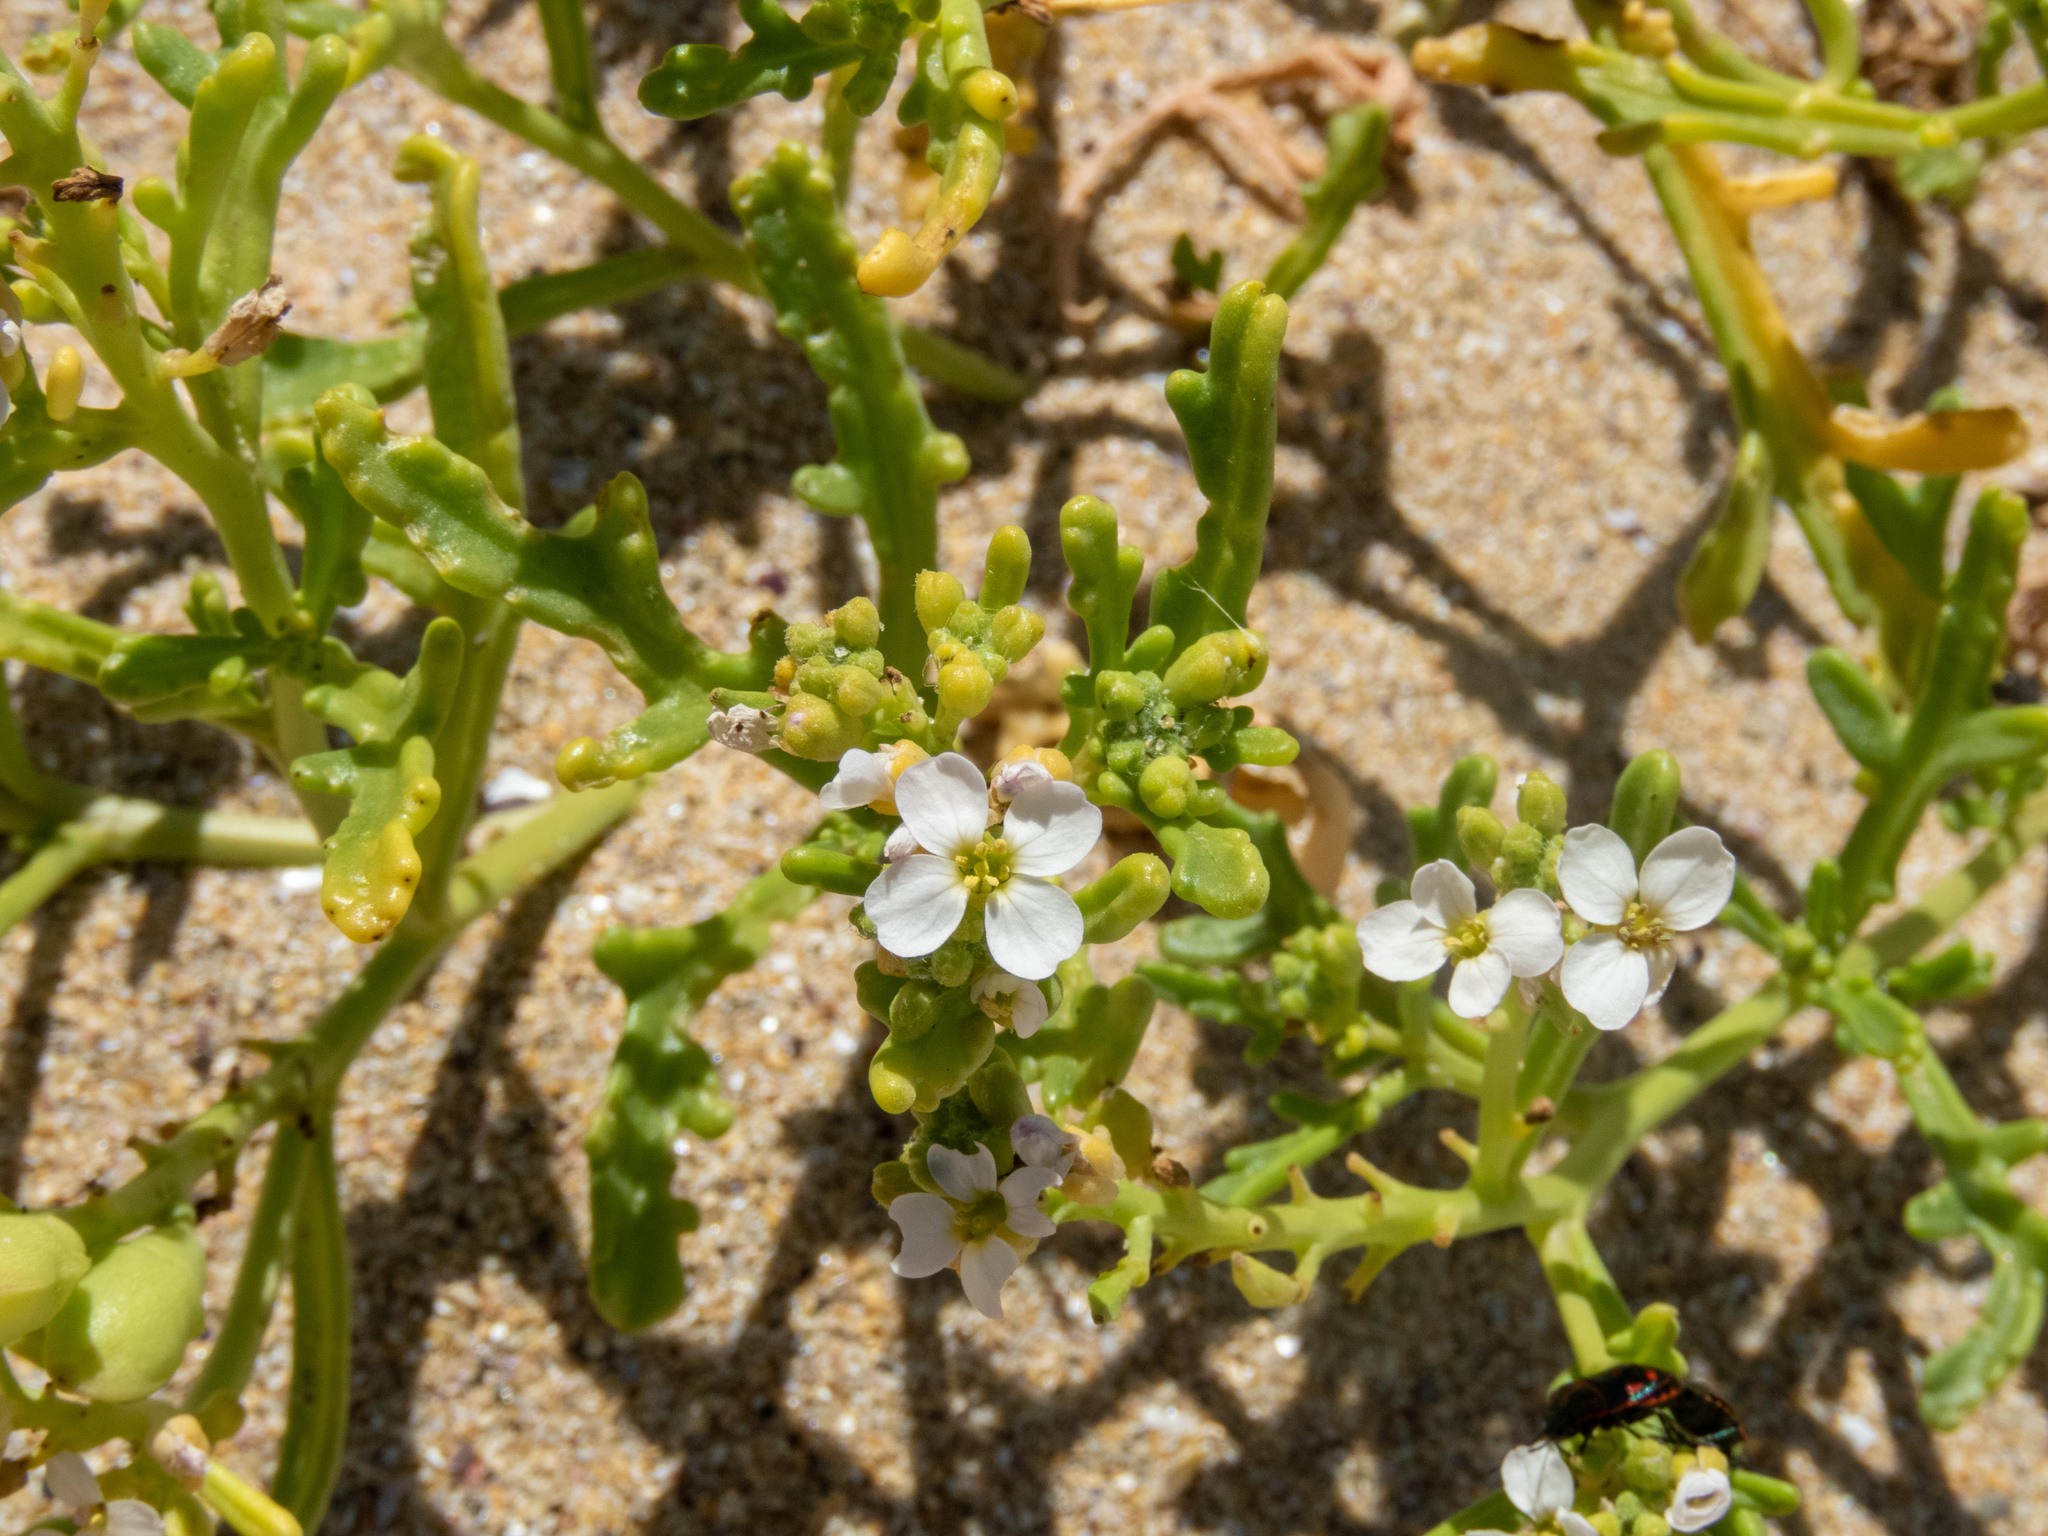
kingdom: Plantae
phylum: Tracheophyta
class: Magnoliopsida
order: Brassicales
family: Brassicaceae
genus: Cakile
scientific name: Cakile maritima
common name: Sea rocket
